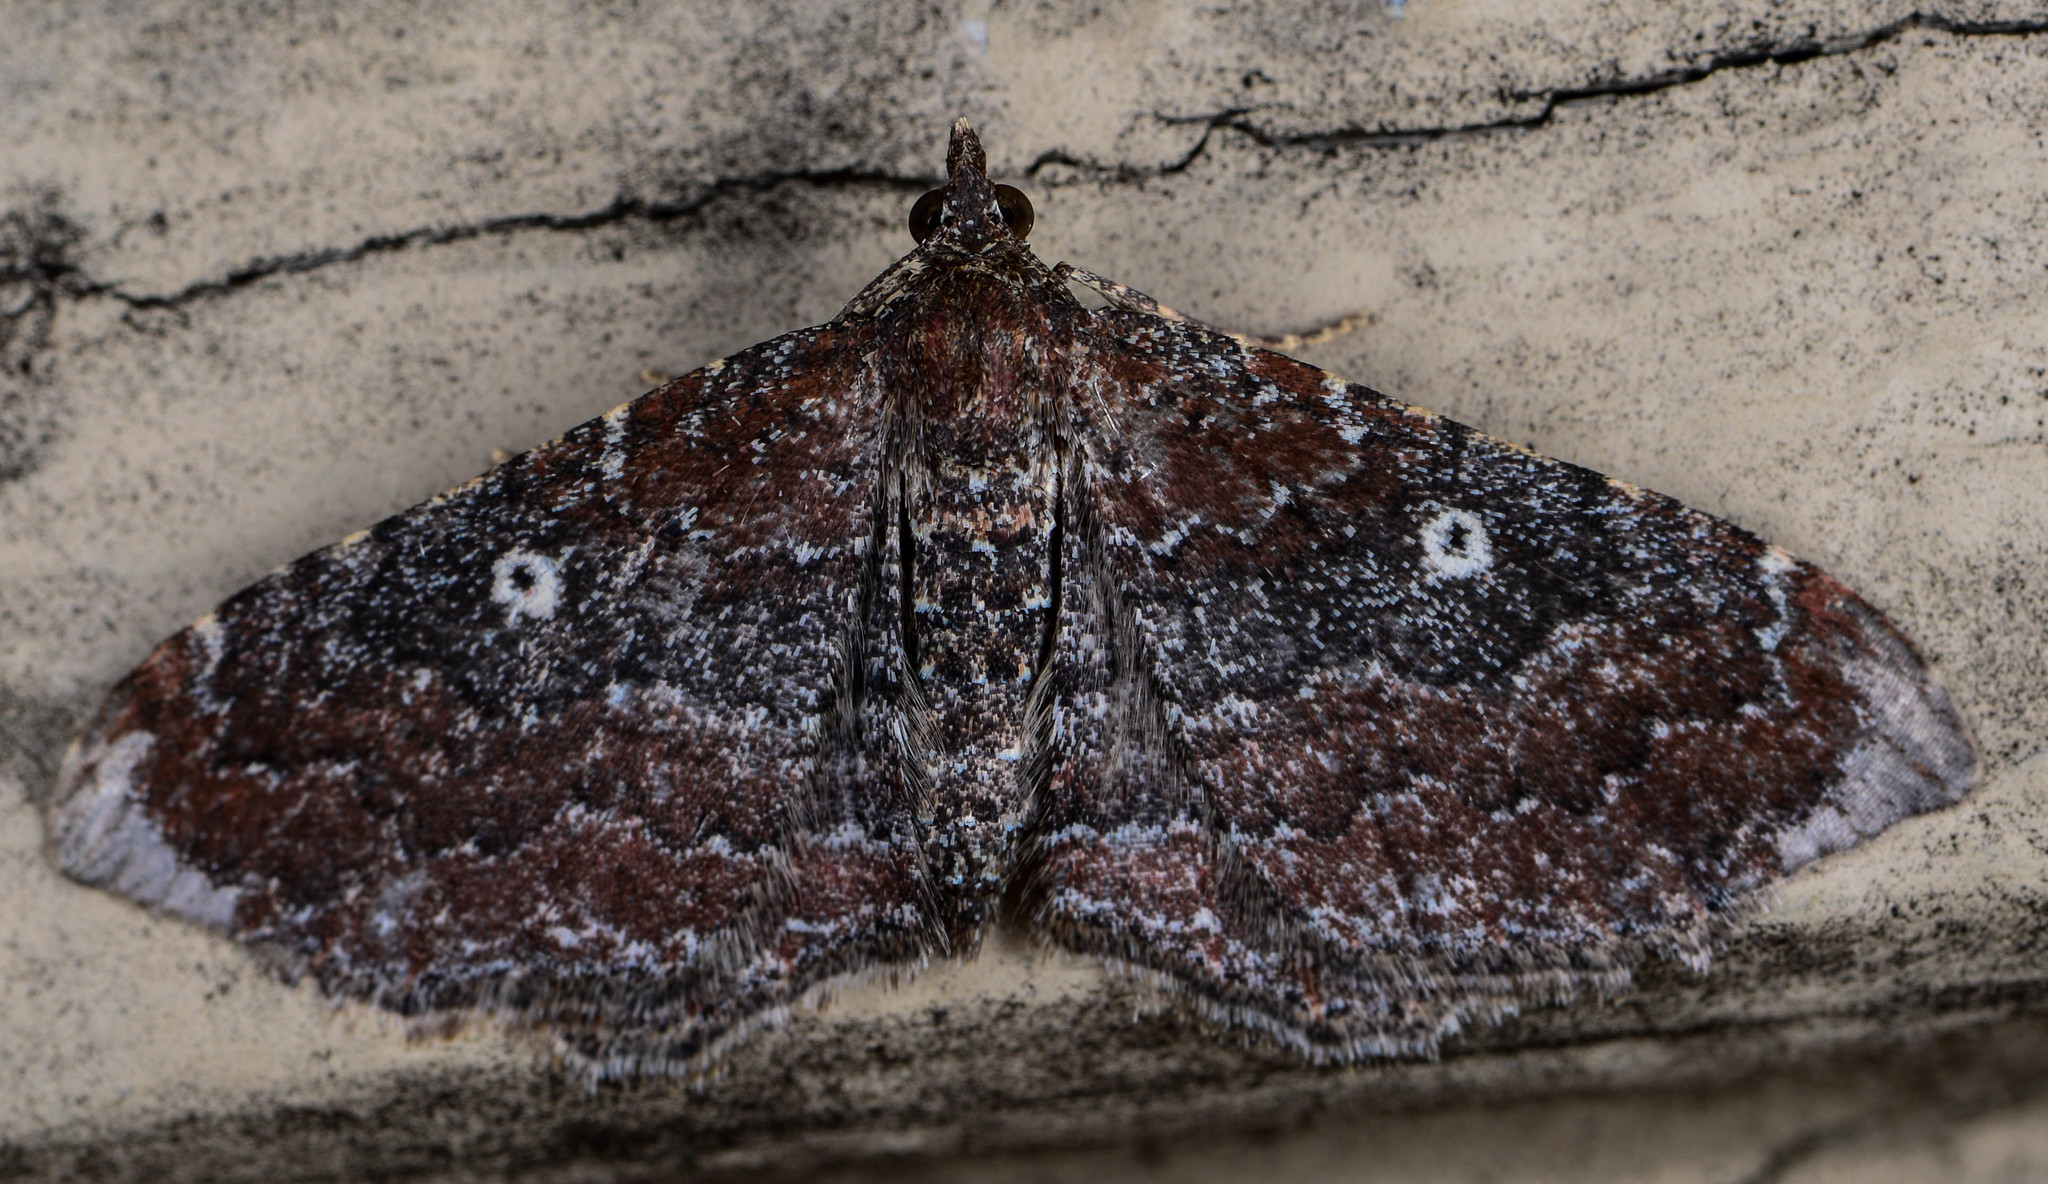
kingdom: Animalia
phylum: Arthropoda
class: Insecta
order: Lepidoptera
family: Geometridae
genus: Orthonama
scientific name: Orthonama obstipata
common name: The gem
